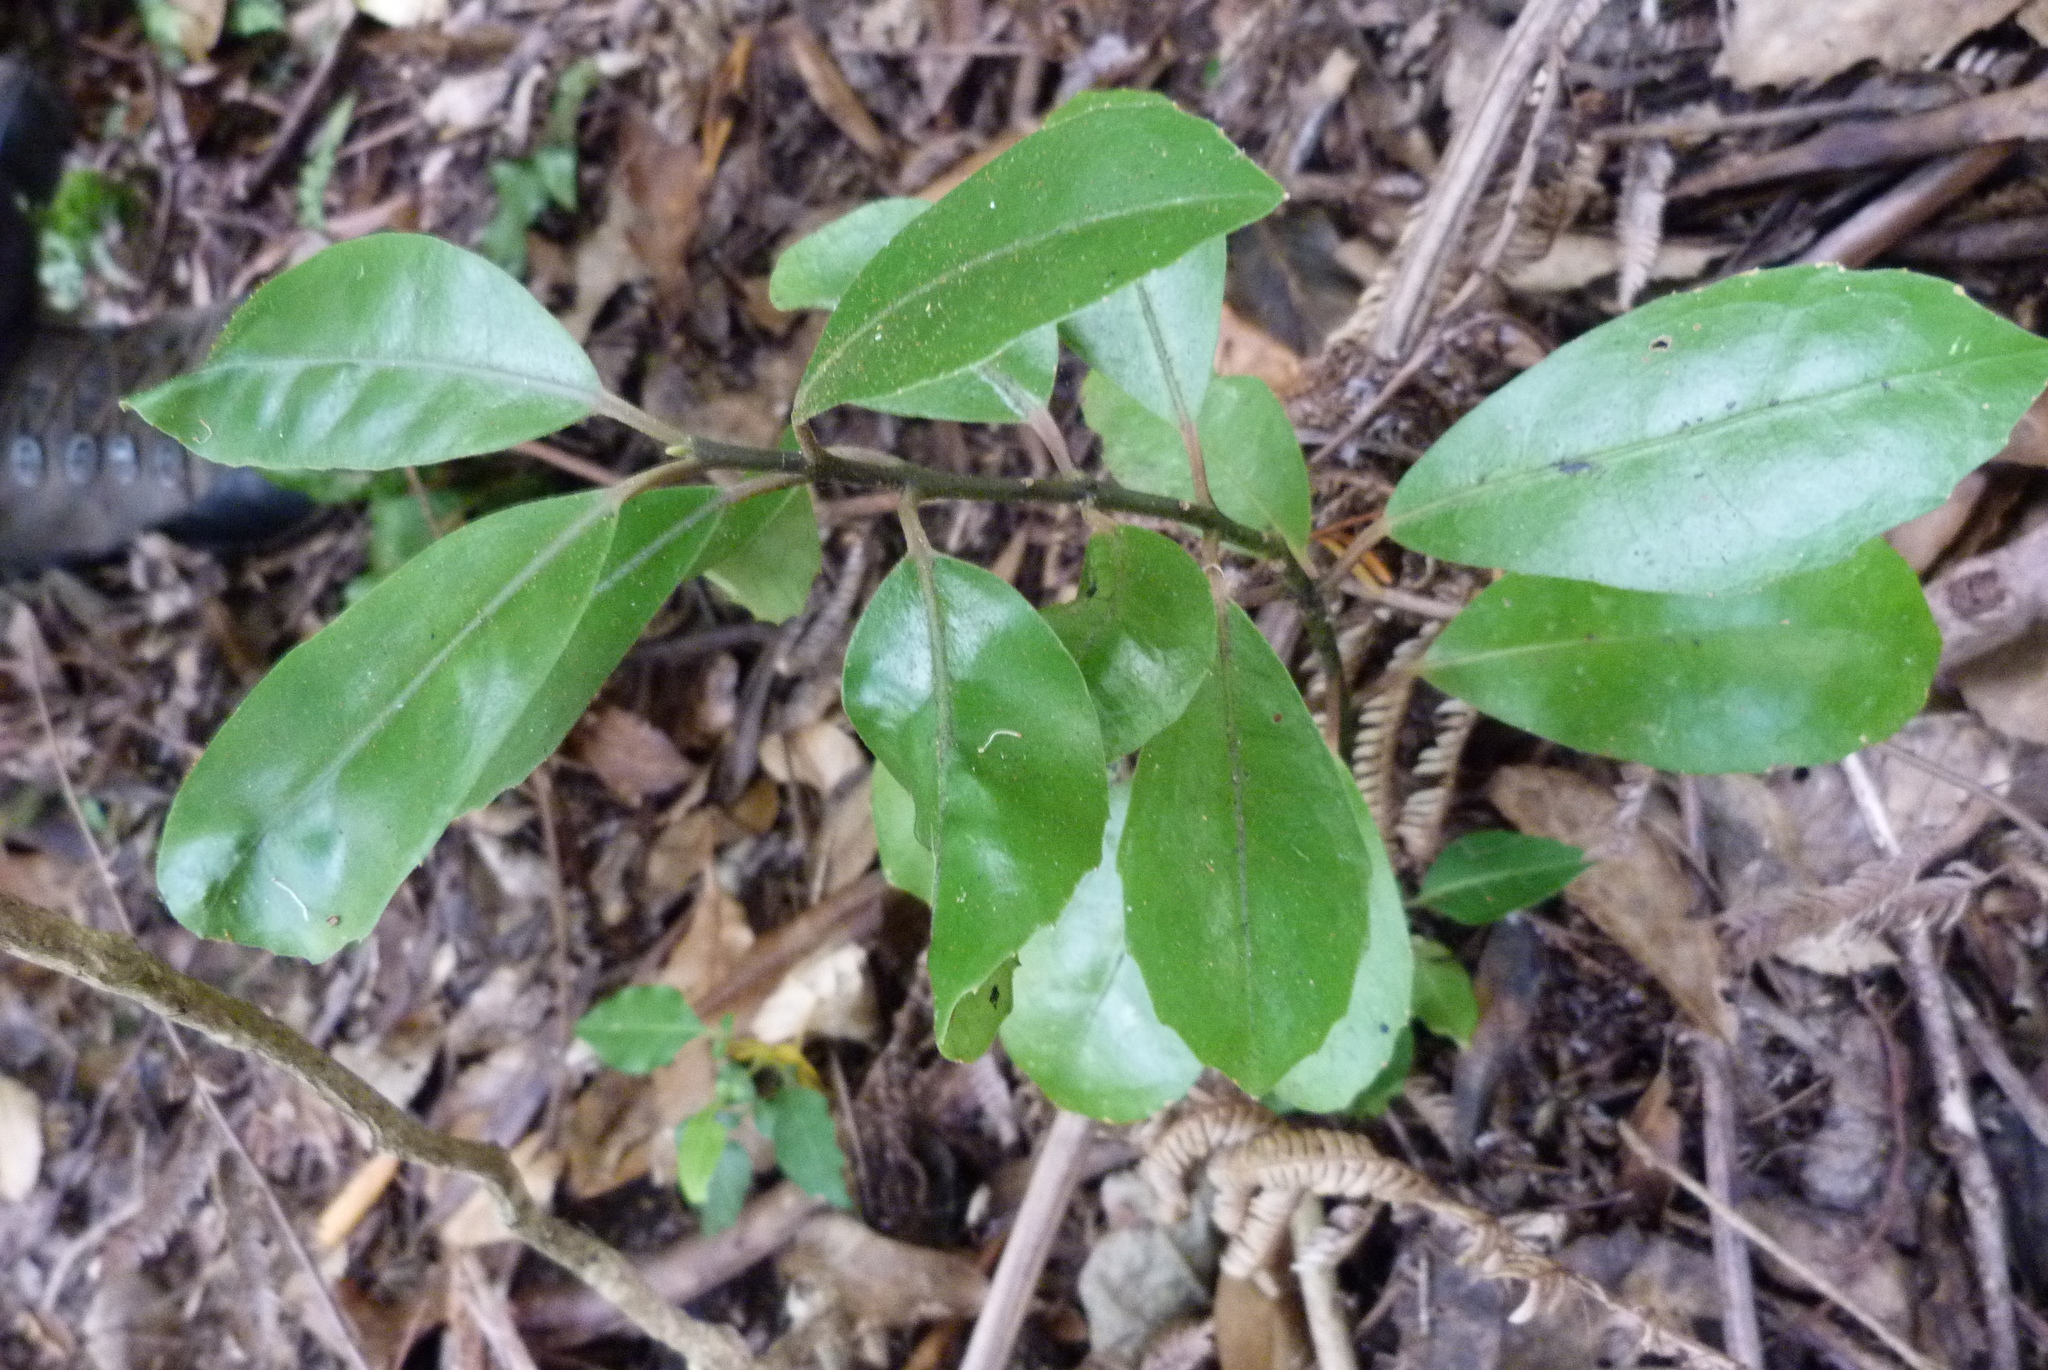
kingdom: Plantae
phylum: Tracheophyta
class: Magnoliopsida
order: Laurales
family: Monimiaceae
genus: Hedycarya
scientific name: Hedycarya arborea
